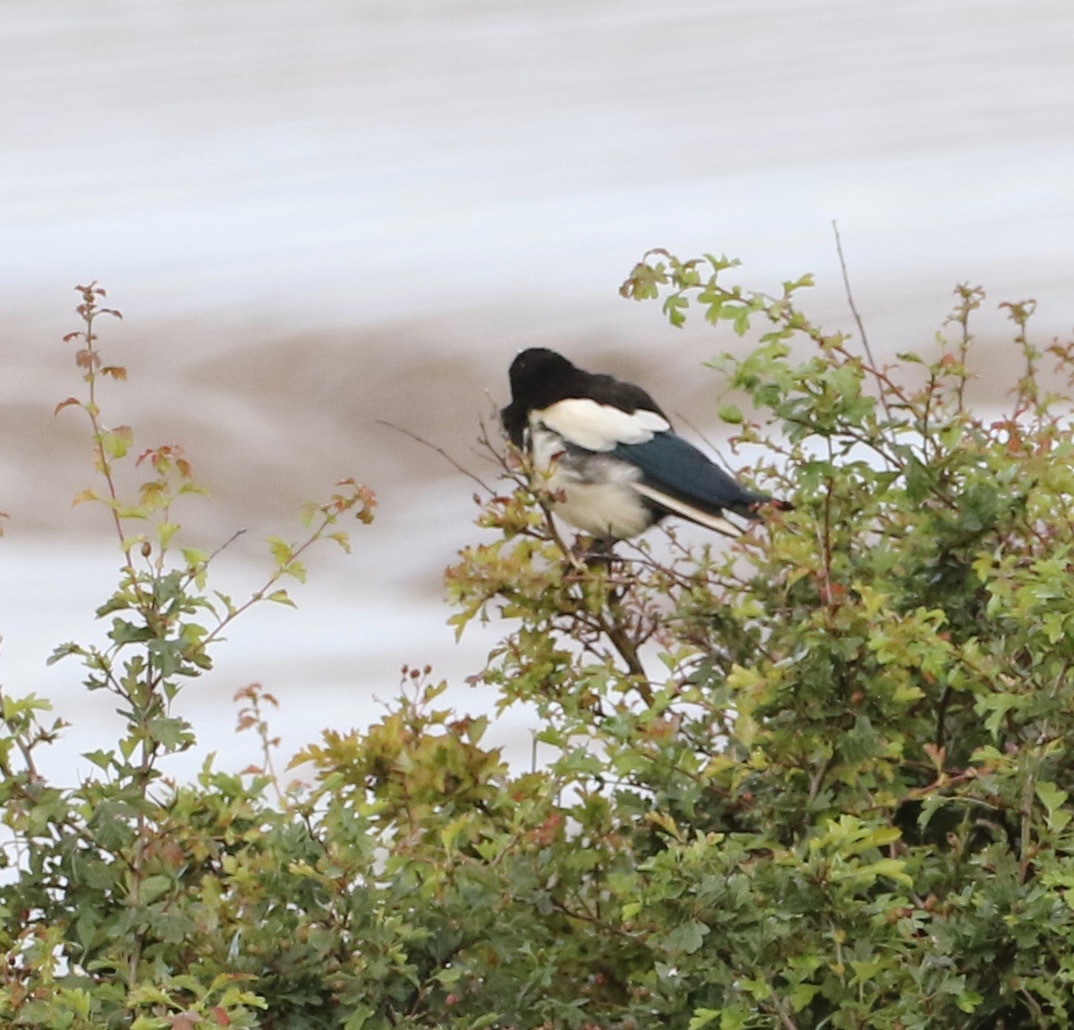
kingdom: Animalia
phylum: Chordata
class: Aves
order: Passeriformes
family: Corvidae
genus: Pica
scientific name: Pica pica
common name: Eurasian magpie
